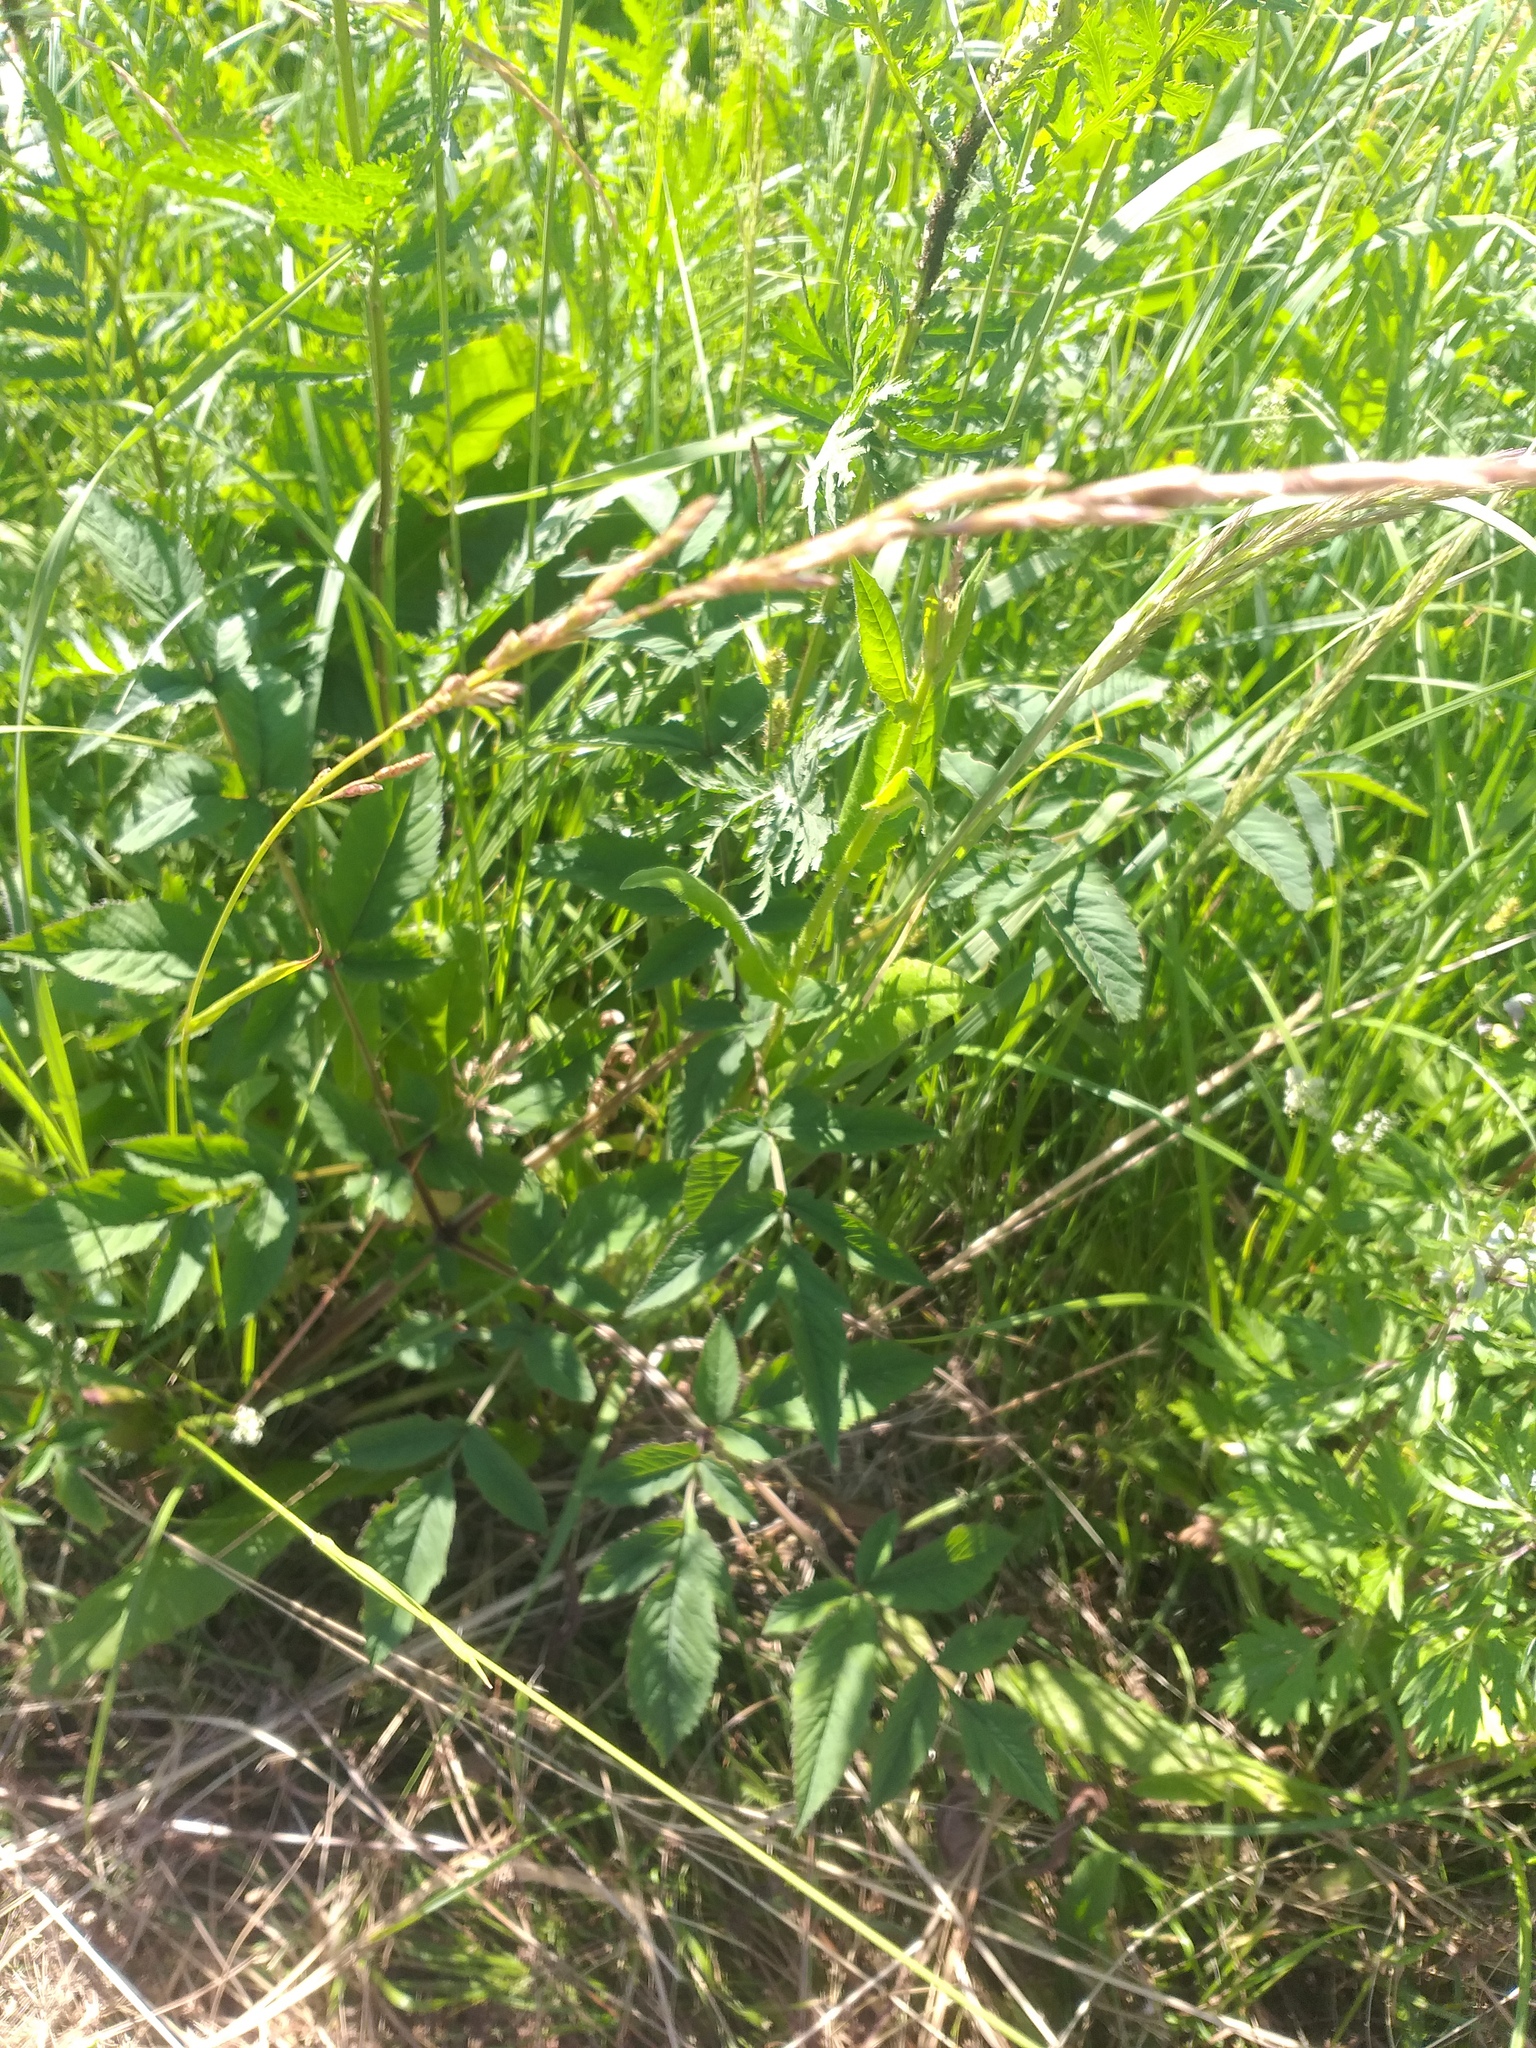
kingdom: Plantae
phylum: Tracheophyta
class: Magnoliopsida
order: Apiales
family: Apiaceae
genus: Angelica
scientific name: Angelica sylvestris
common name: Wild angelica
